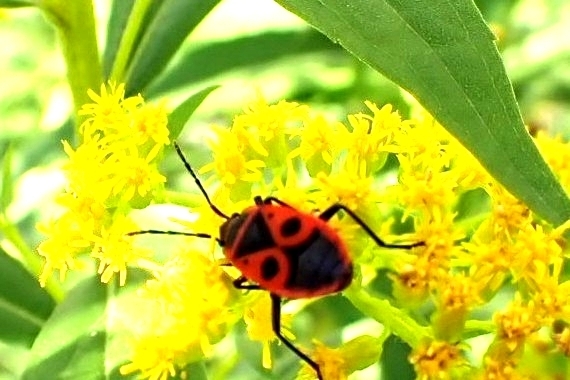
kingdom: Animalia
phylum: Arthropoda
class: Insecta
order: Hemiptera
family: Pyrrhocoridae
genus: Pyrrhocoris
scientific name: Pyrrhocoris apterus
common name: Firebug
